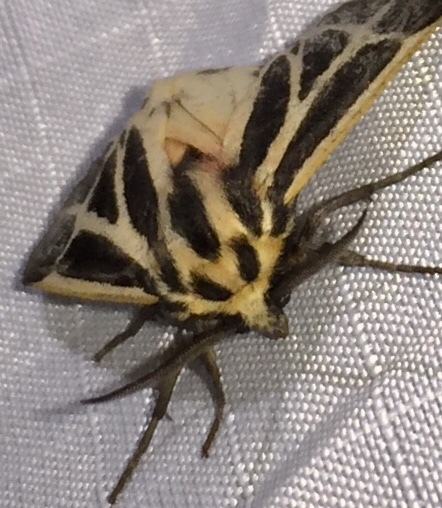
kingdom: Animalia
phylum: Arthropoda
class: Insecta
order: Lepidoptera
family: Erebidae
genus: Apantesis
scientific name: Apantesis phalerata
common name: Harnessed tiger moth
